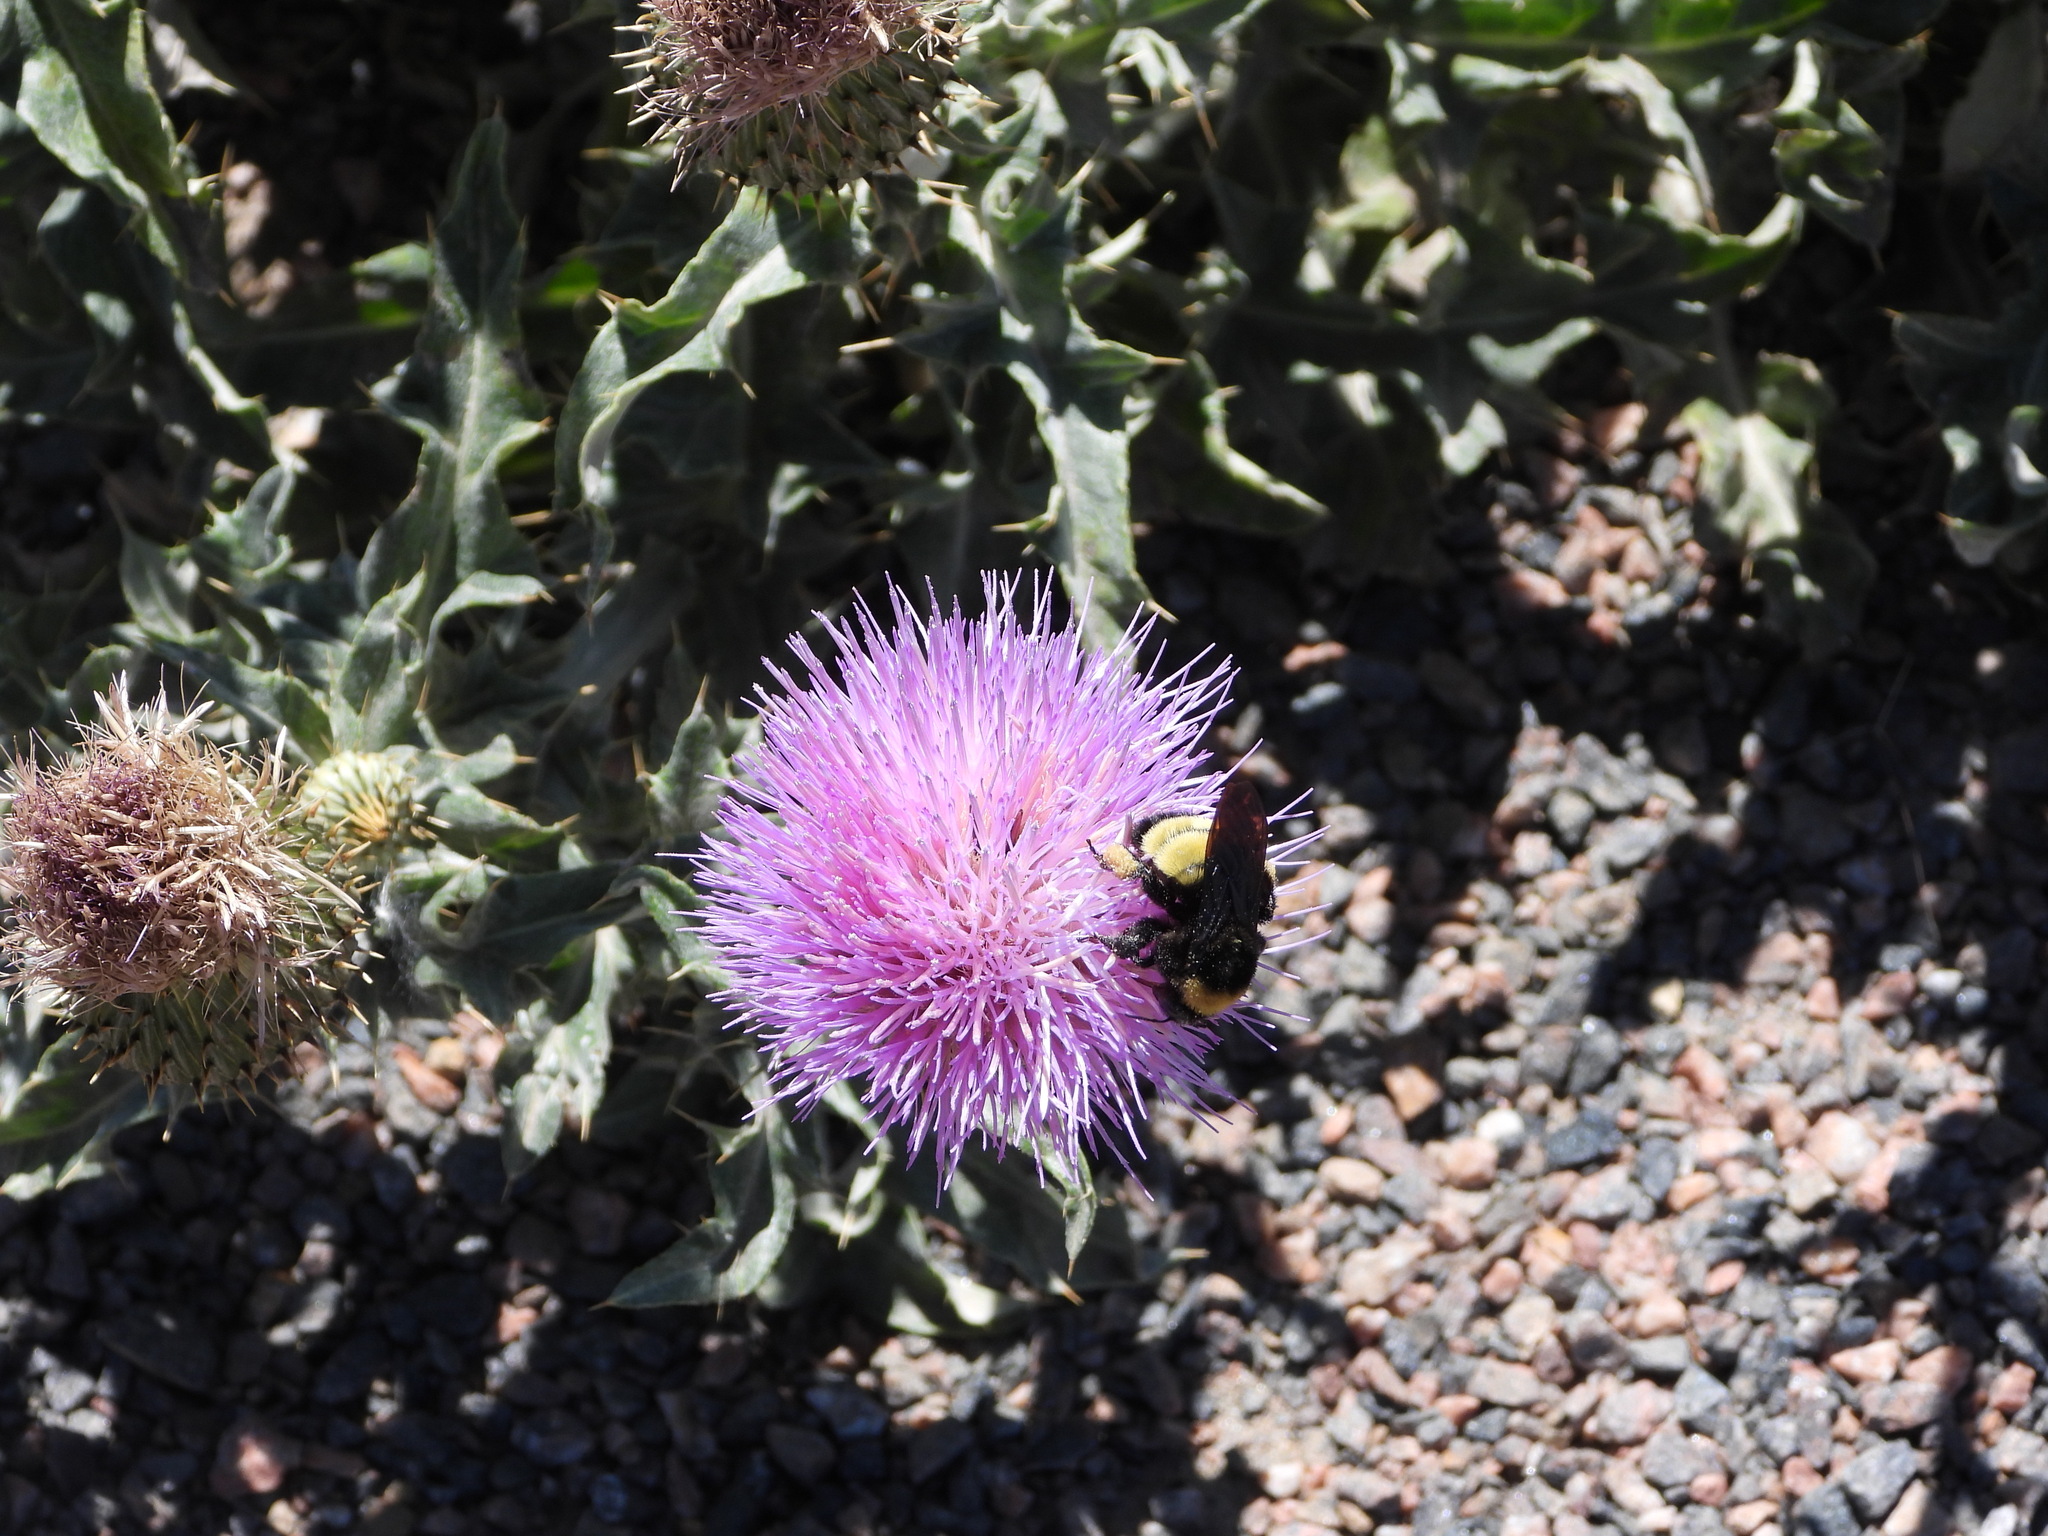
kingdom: Animalia
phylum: Arthropoda
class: Insecta
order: Hymenoptera
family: Apidae
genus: Bombus
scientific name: Bombus pensylvanicus
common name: Bumble bee
